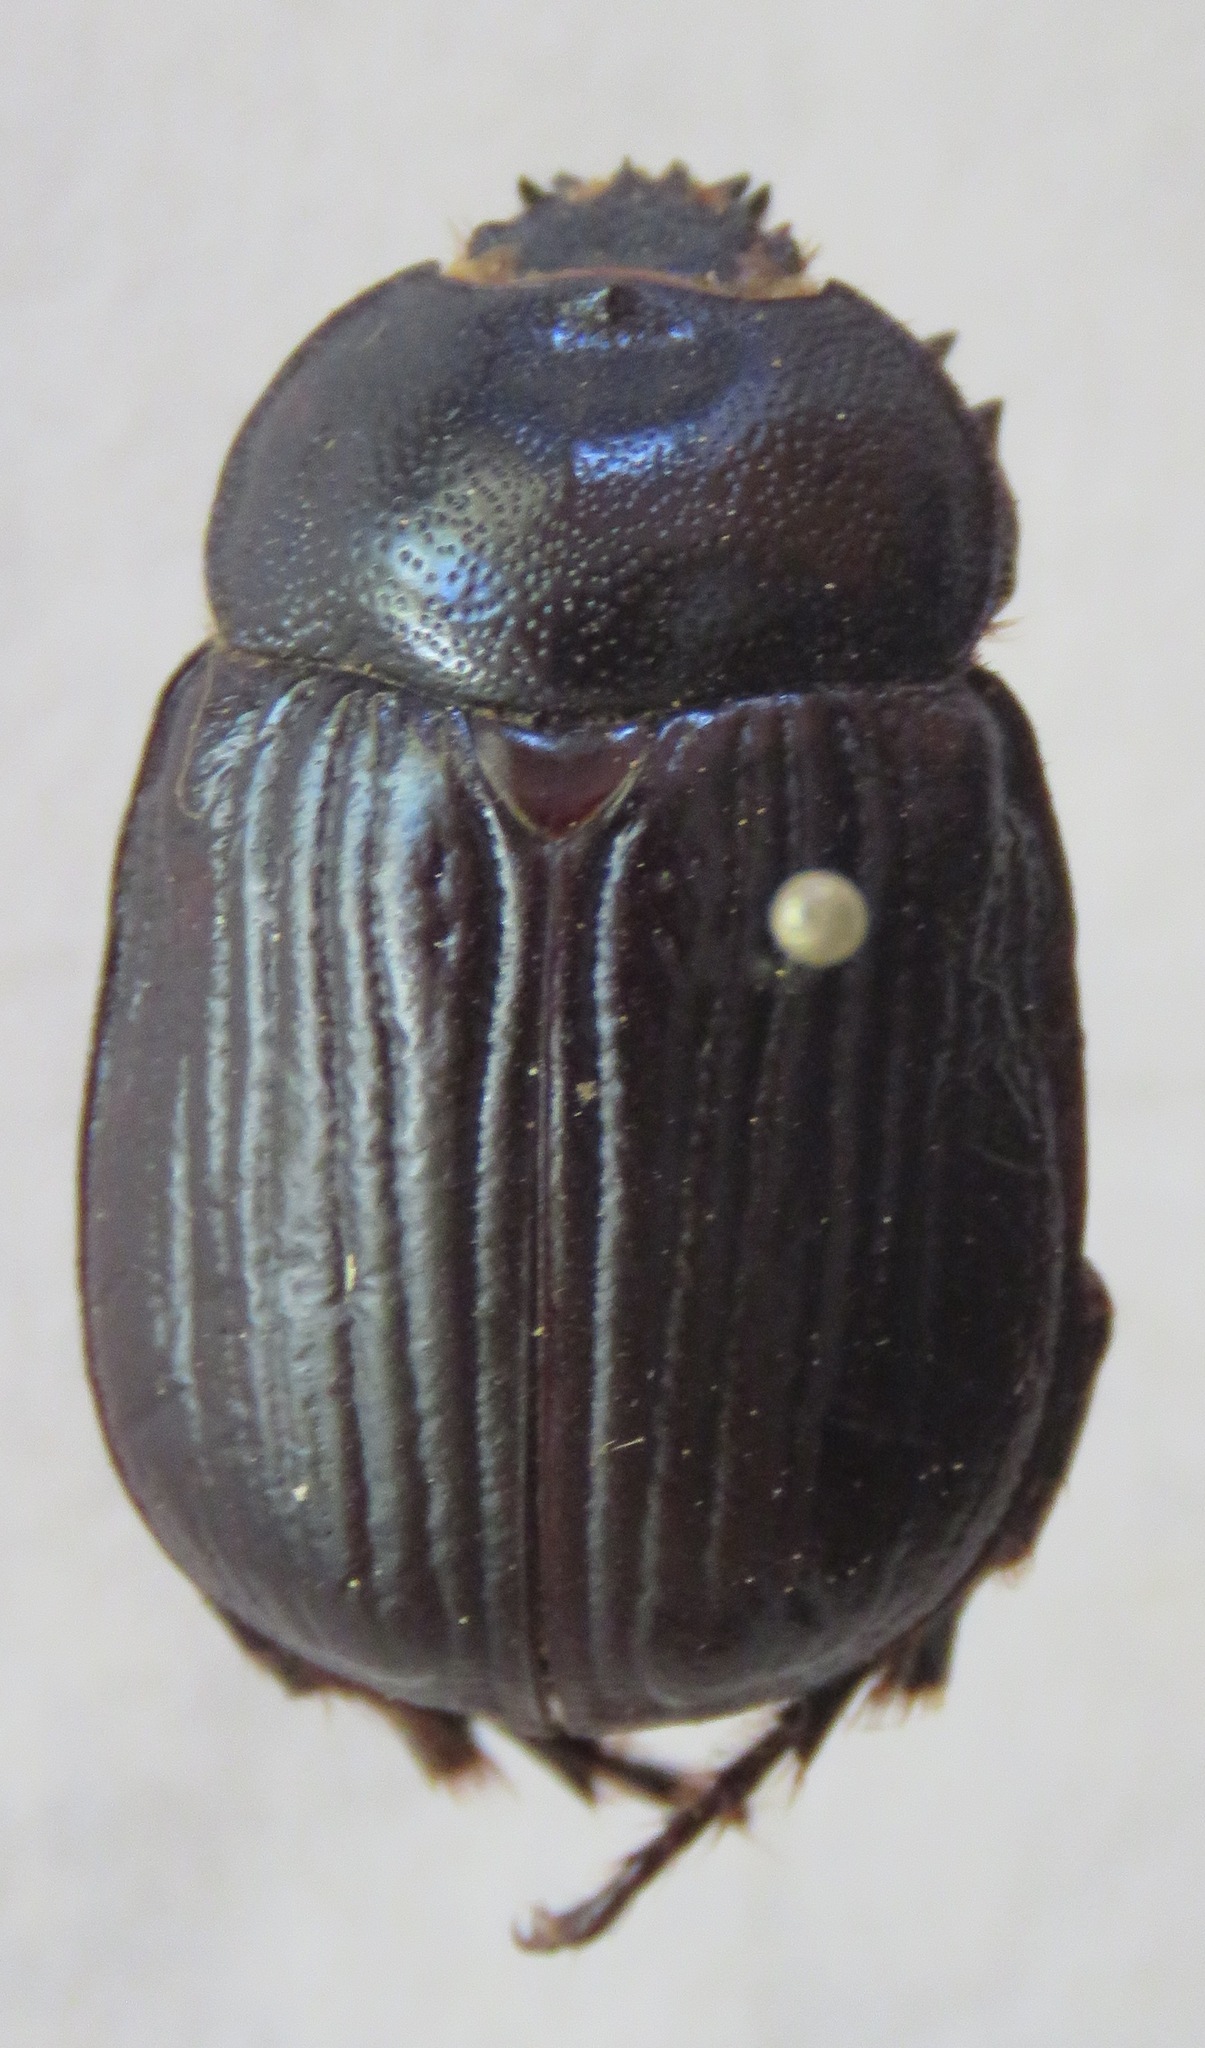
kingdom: Animalia
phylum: Arthropoda
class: Insecta
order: Coleoptera
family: Scarabaeidae
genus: Bothynus
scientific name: Bothynus exaratus
